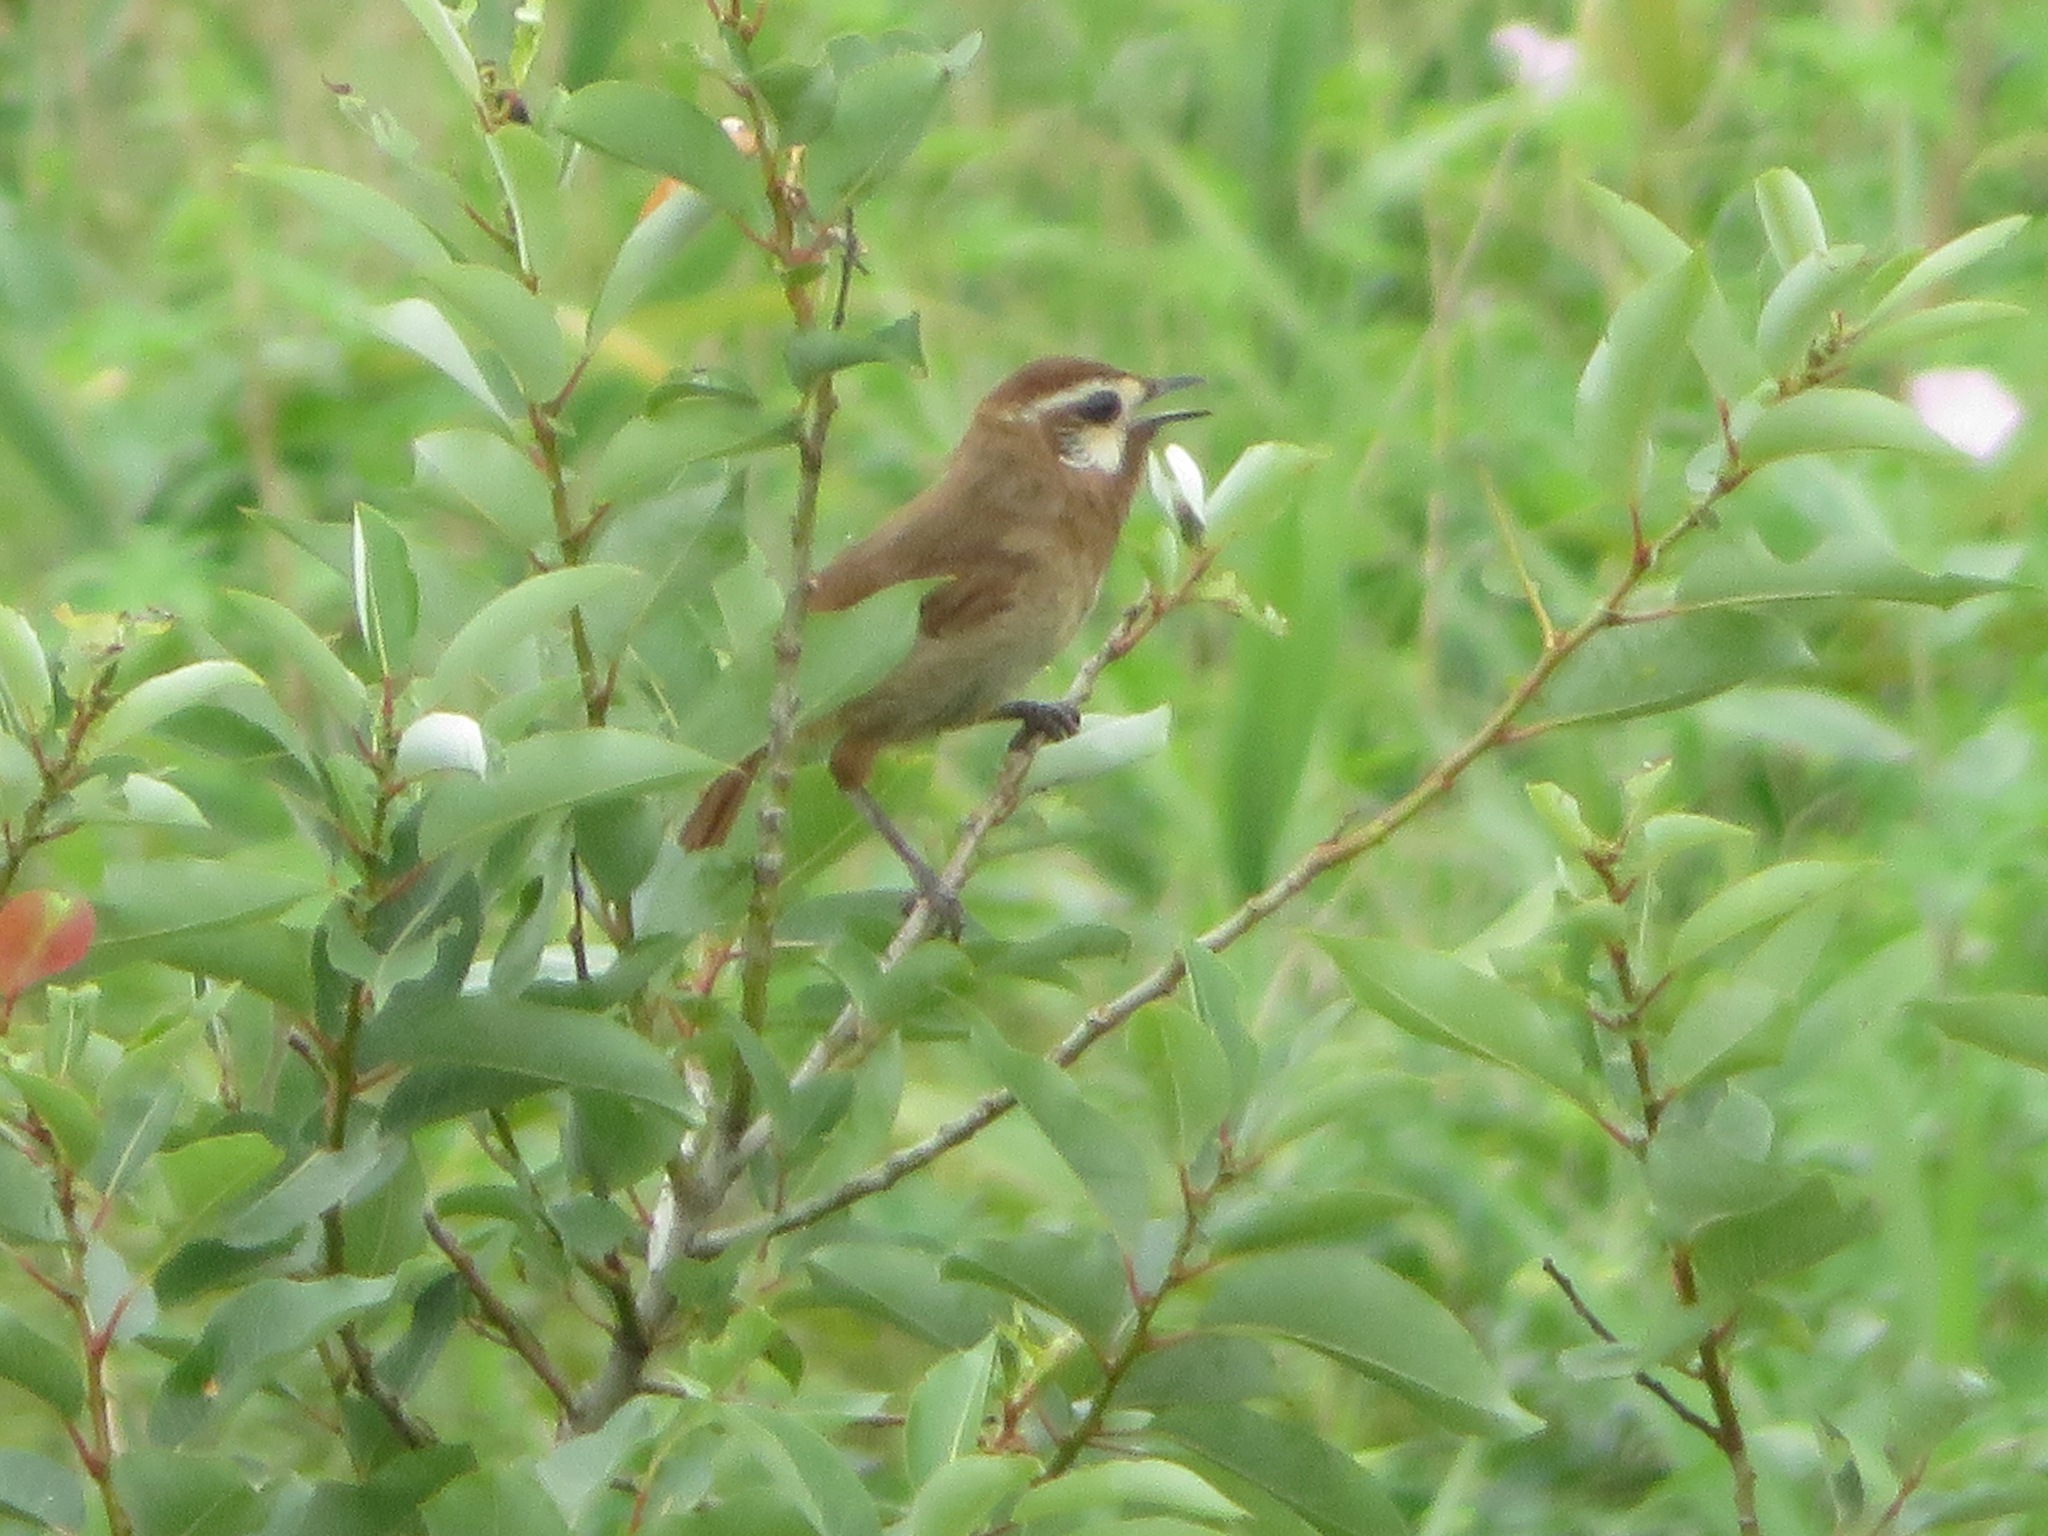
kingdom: Animalia
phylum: Chordata
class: Aves
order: Passeriformes
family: Leiothrichidae
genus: Pterorhinus
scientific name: Pterorhinus sannio
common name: White-browed laughingthrush
